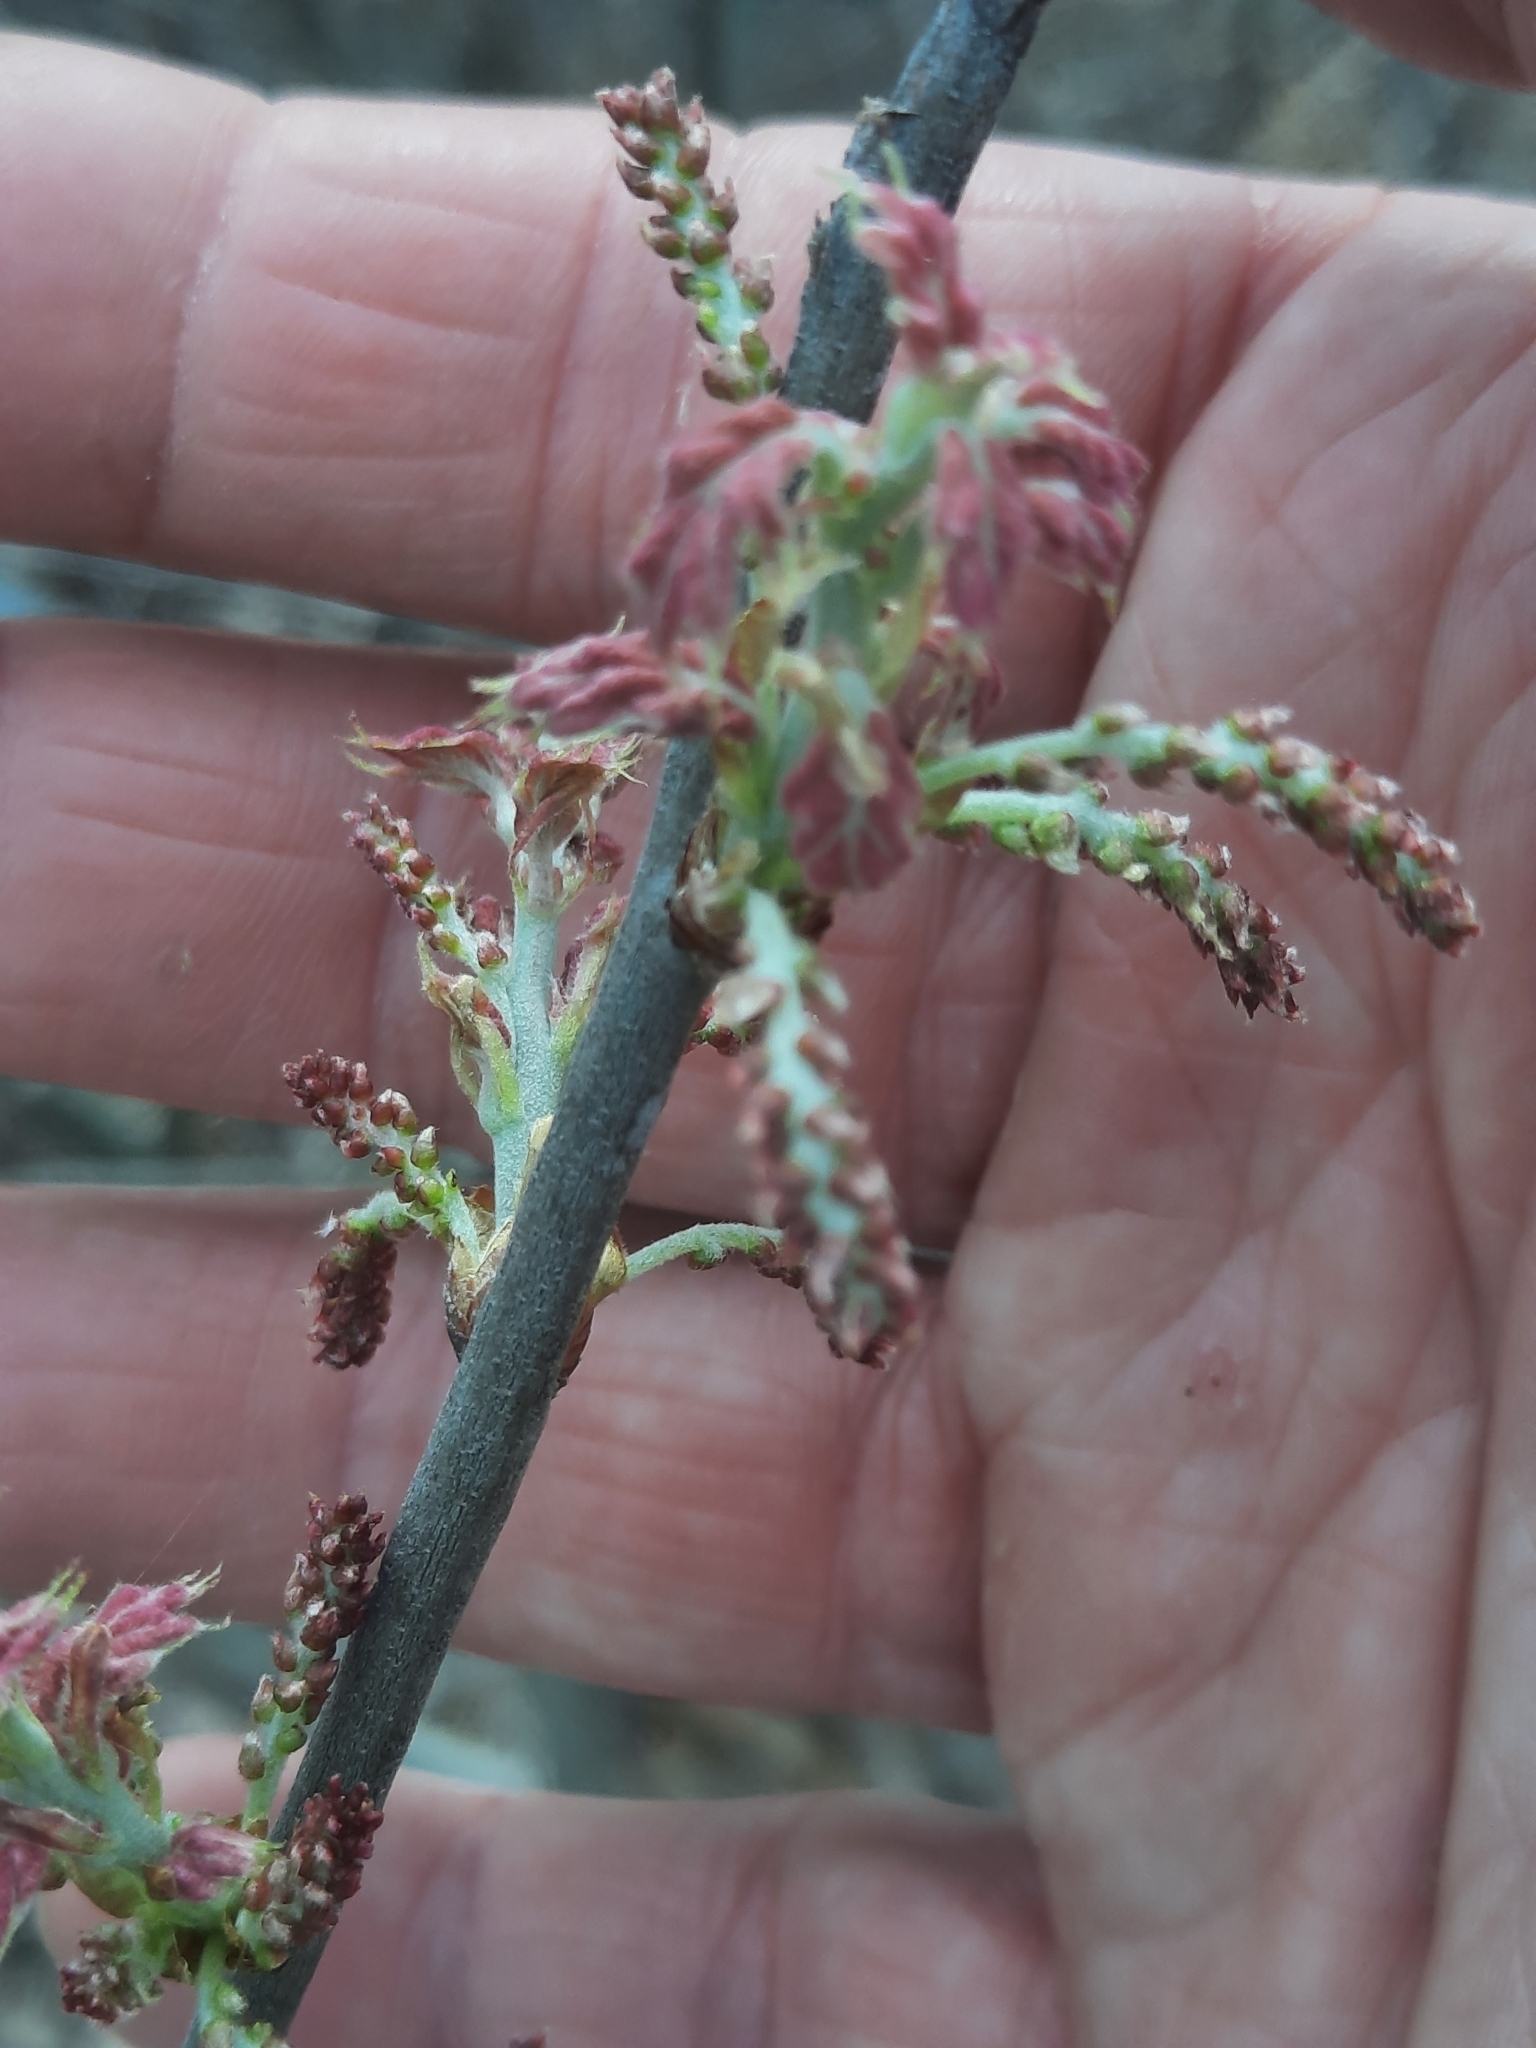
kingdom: Plantae
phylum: Tracheophyta
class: Magnoliopsida
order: Fagales
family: Fagaceae
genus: Quercus
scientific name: Quercus ilicifolia
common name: Bear oak
